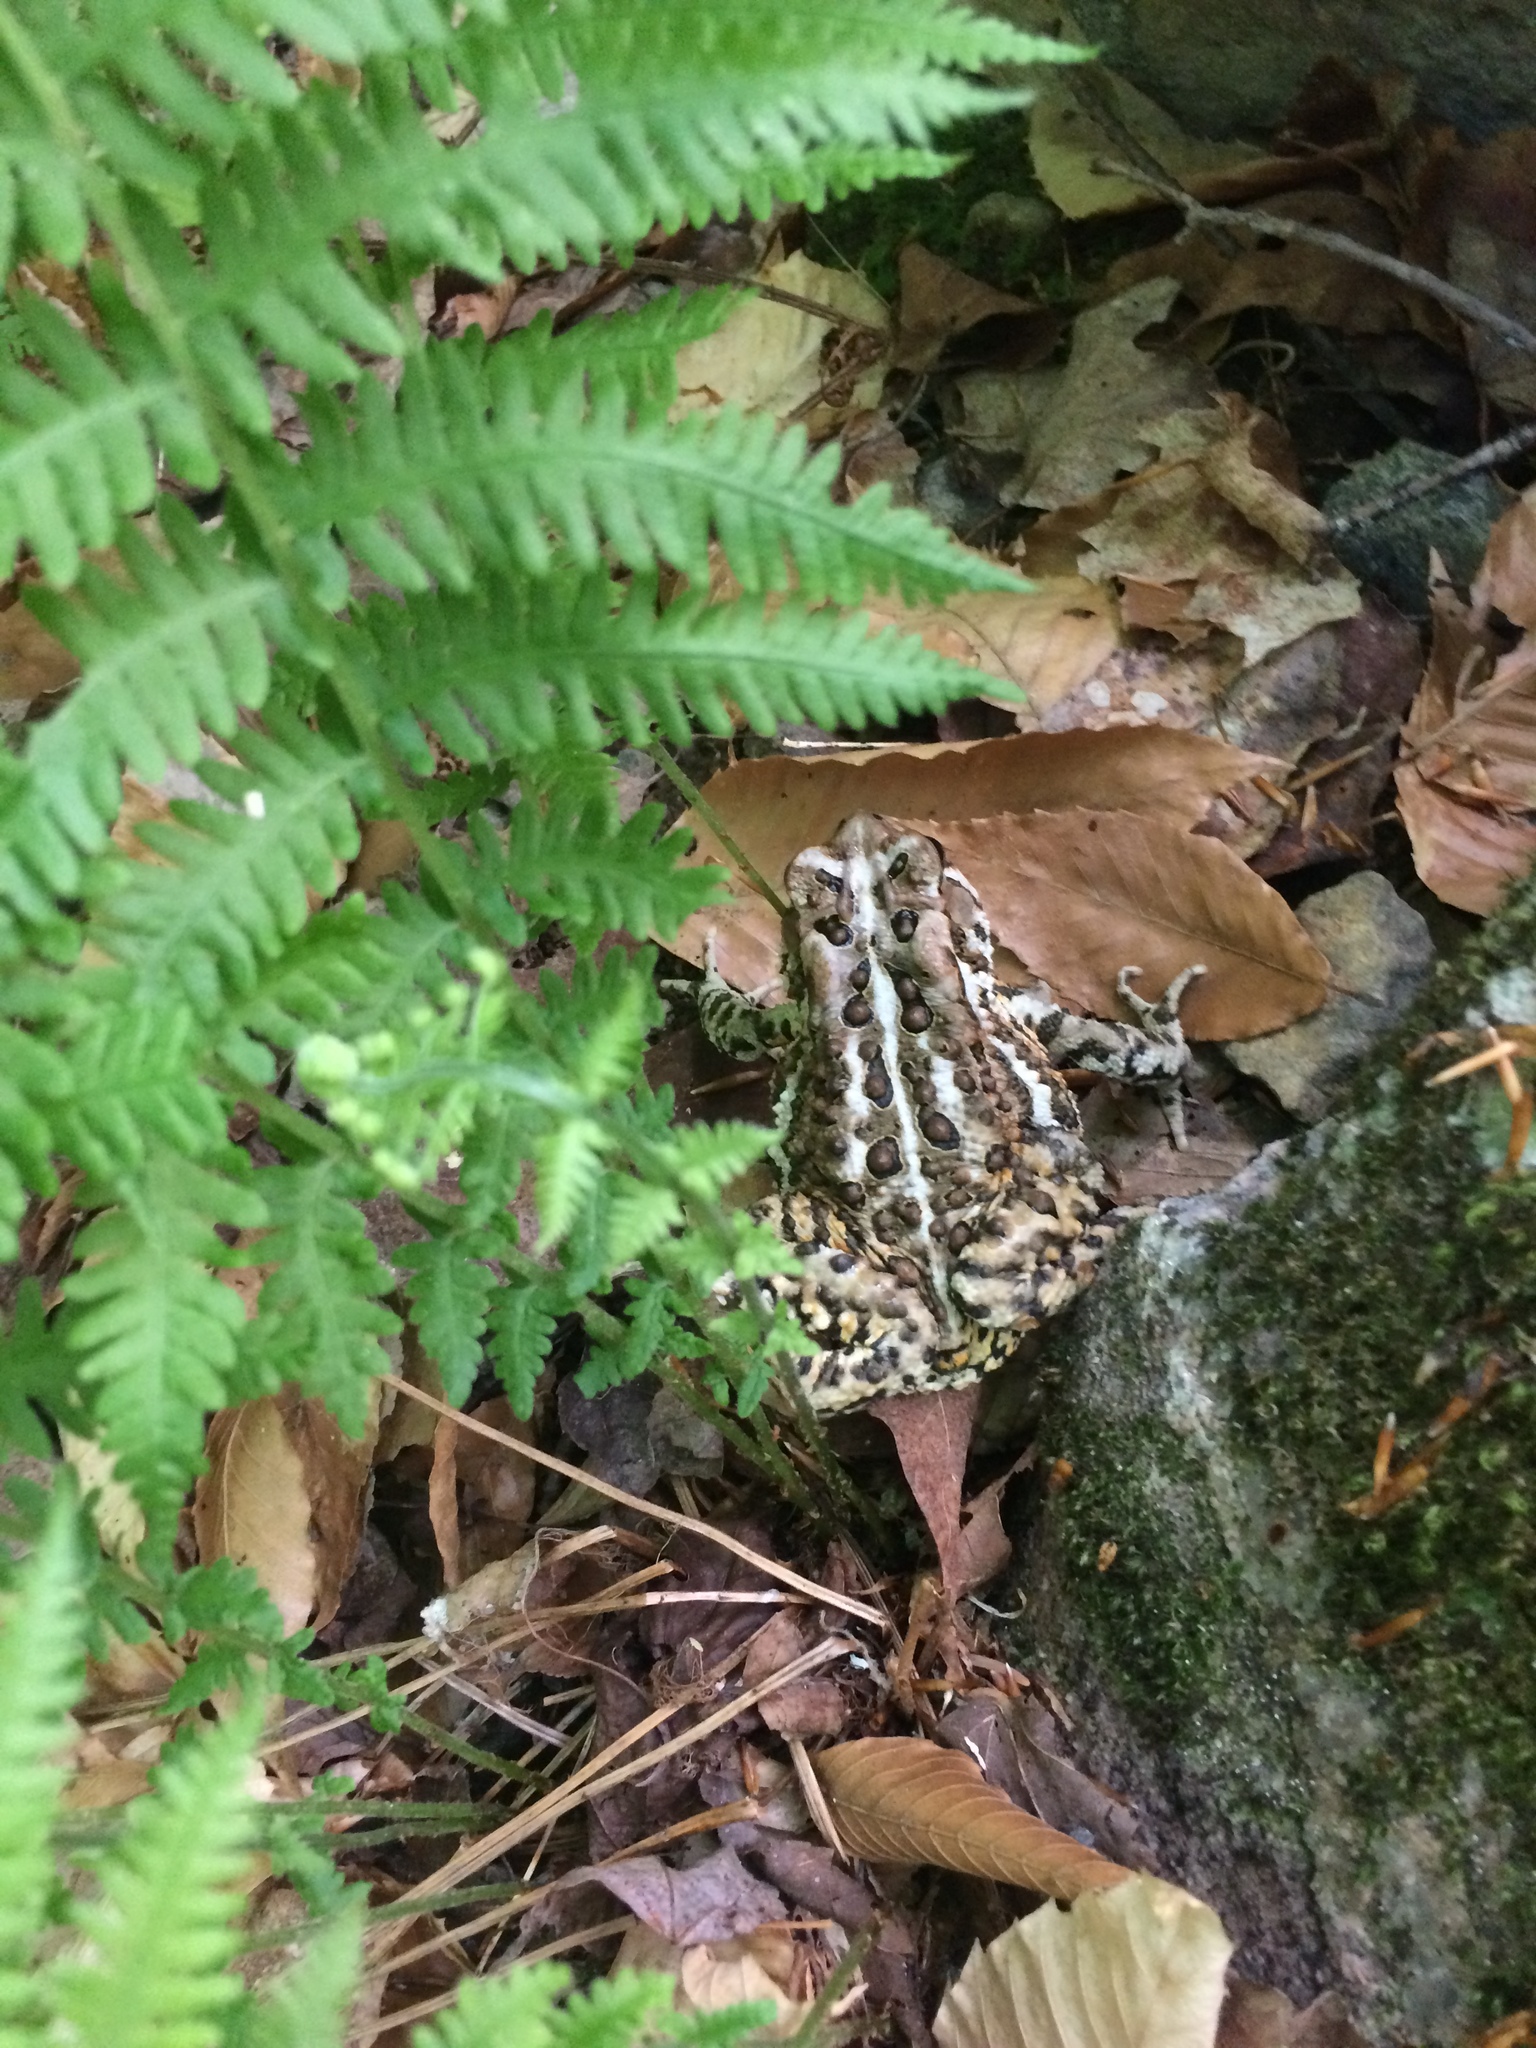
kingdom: Animalia
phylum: Chordata
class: Amphibia
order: Anura
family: Bufonidae
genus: Anaxyrus
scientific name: Anaxyrus americanus
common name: American toad
